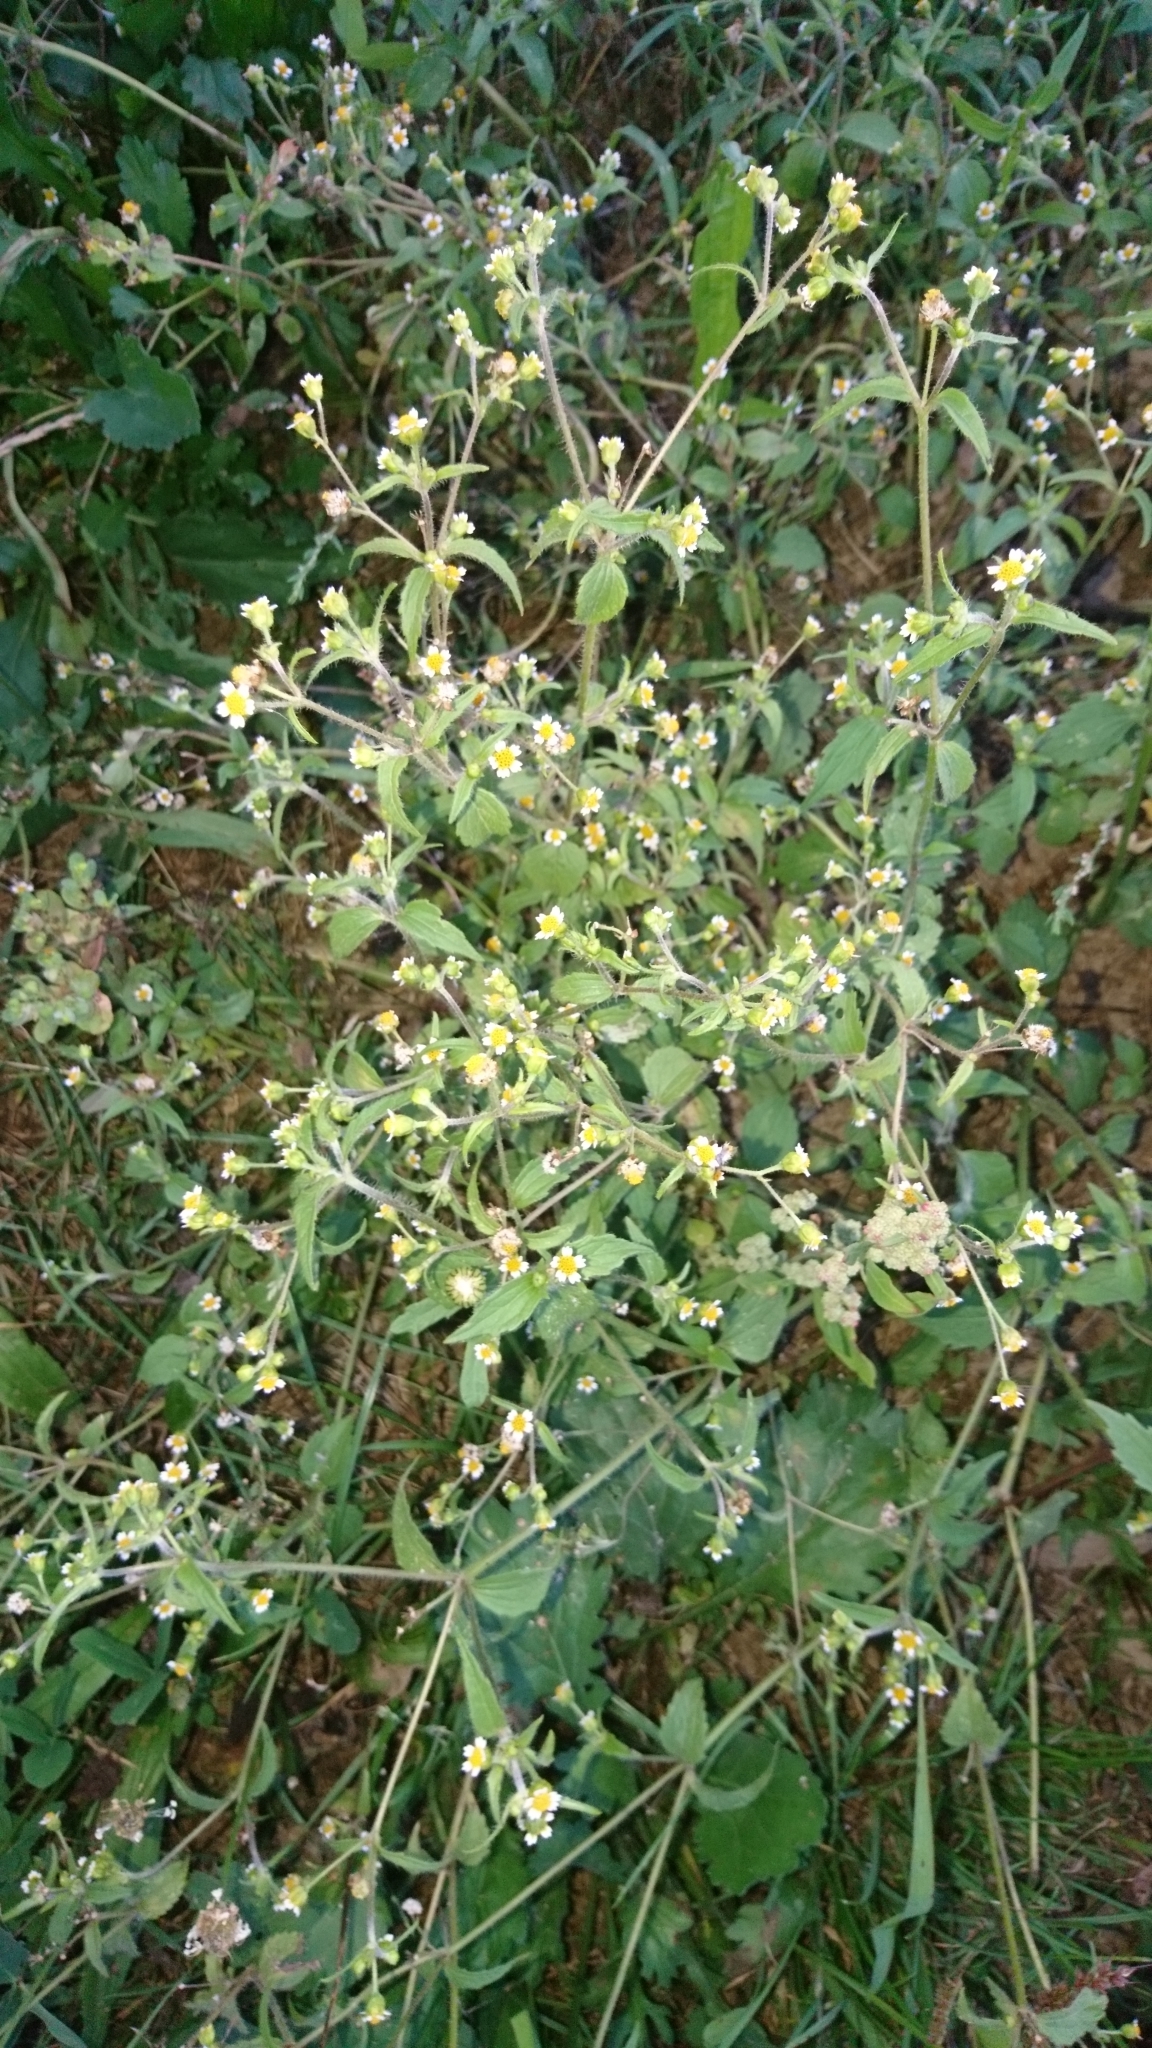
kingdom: Plantae
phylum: Tracheophyta
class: Magnoliopsida
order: Asterales
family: Asteraceae
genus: Galinsoga
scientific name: Galinsoga quadriradiata
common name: Shaggy soldier
